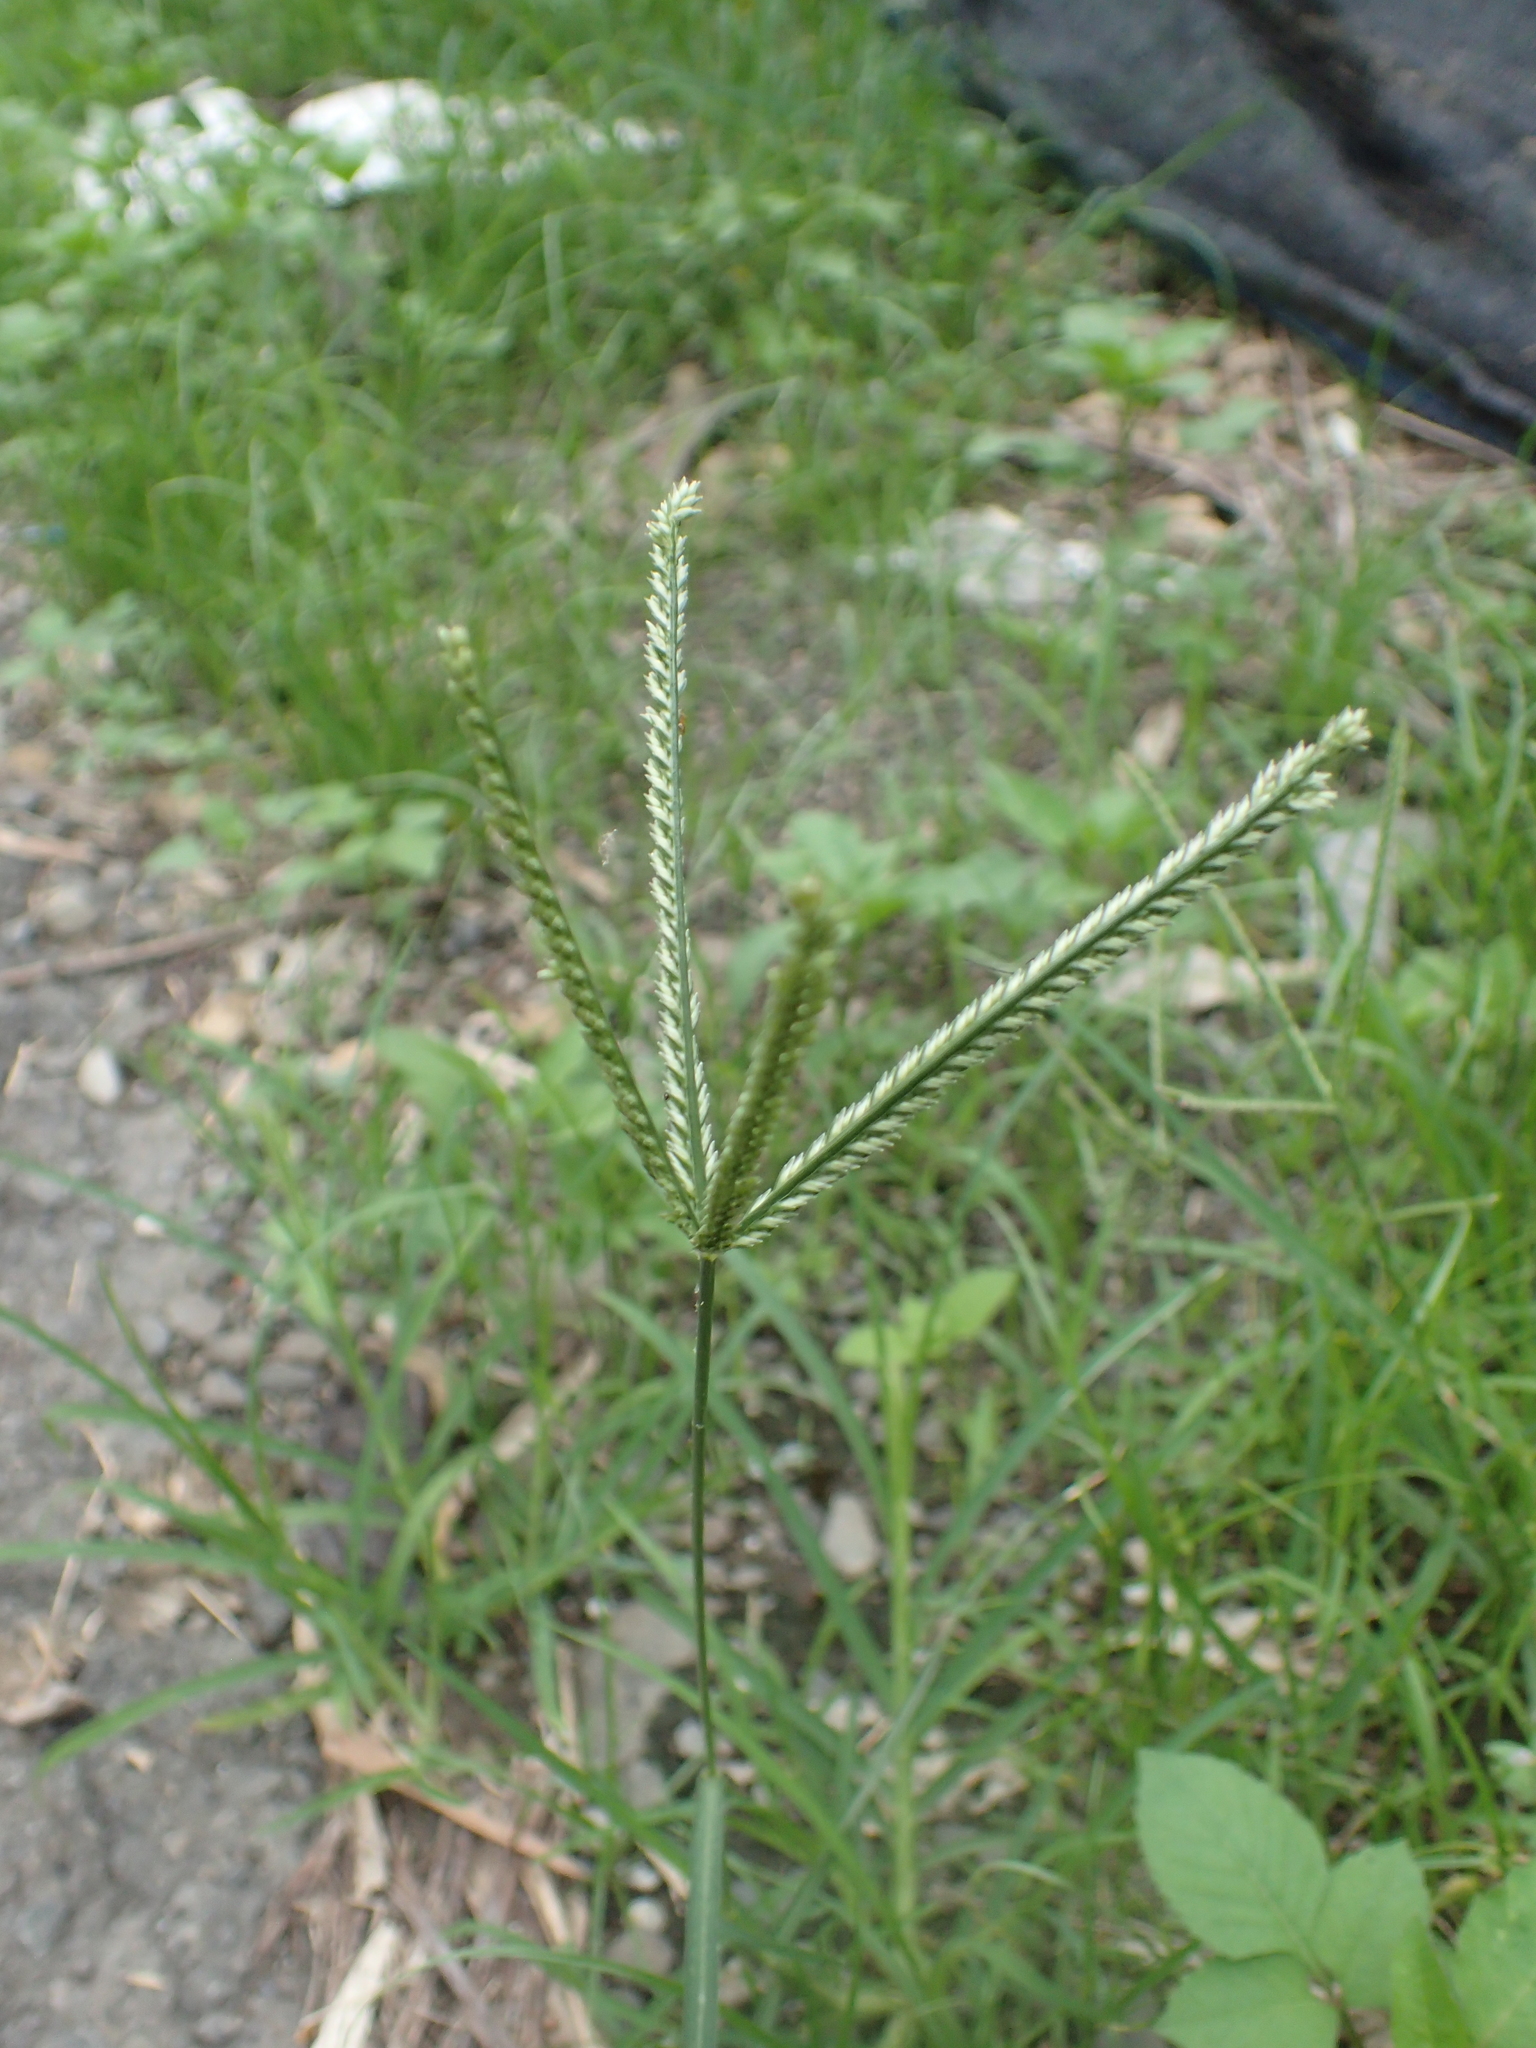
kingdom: Plantae
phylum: Tracheophyta
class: Liliopsida
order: Poales
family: Poaceae
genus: Eleusine
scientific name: Eleusine indica
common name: Yard-grass
